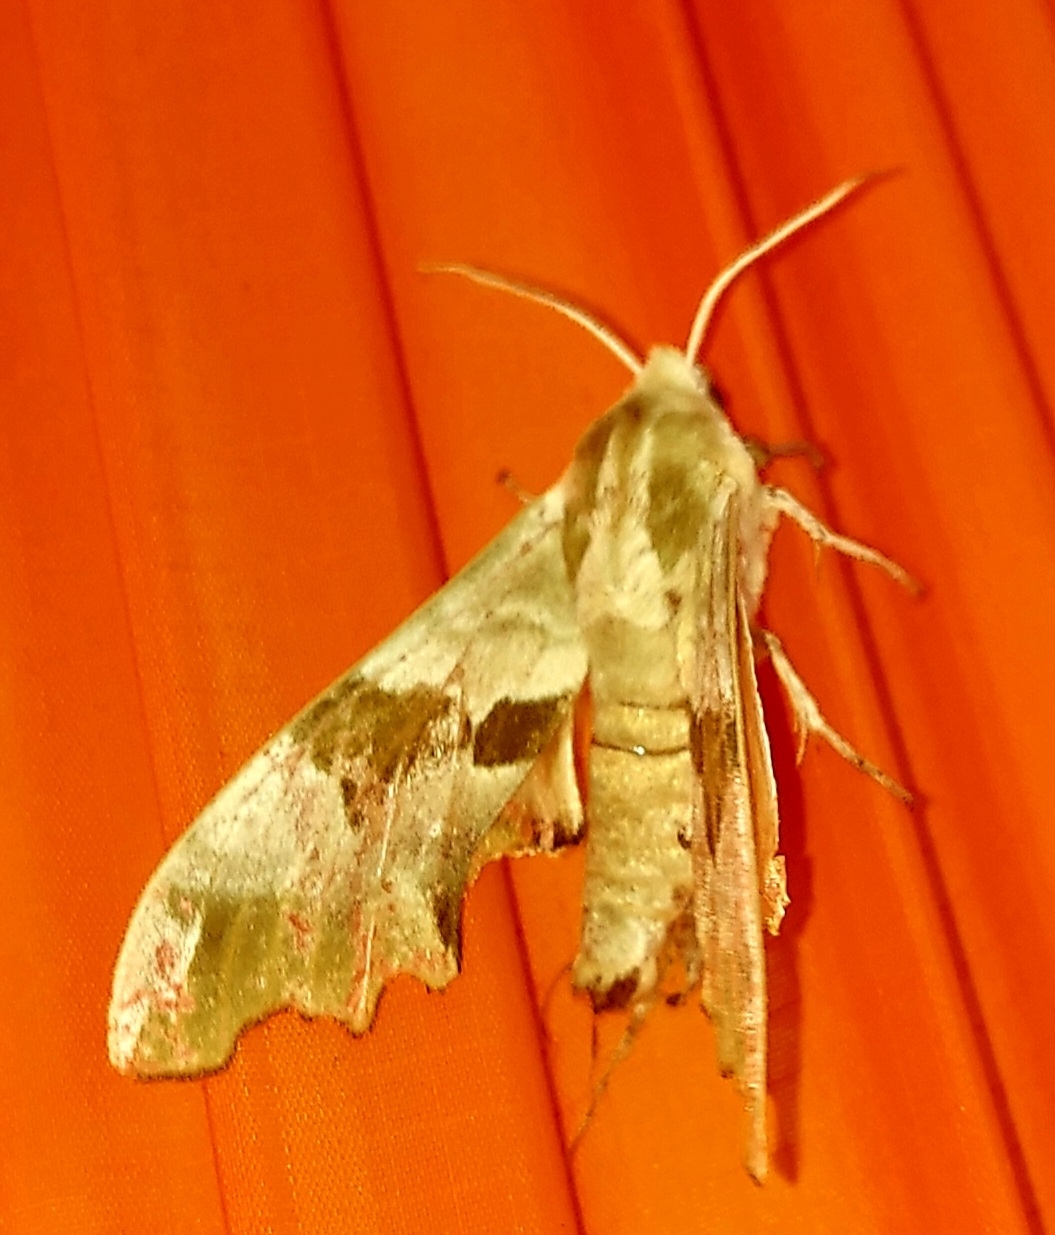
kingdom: Animalia
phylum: Arthropoda
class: Insecta
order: Lepidoptera
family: Sphingidae
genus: Mimas
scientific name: Mimas tiliae
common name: Lime hawk-moth
